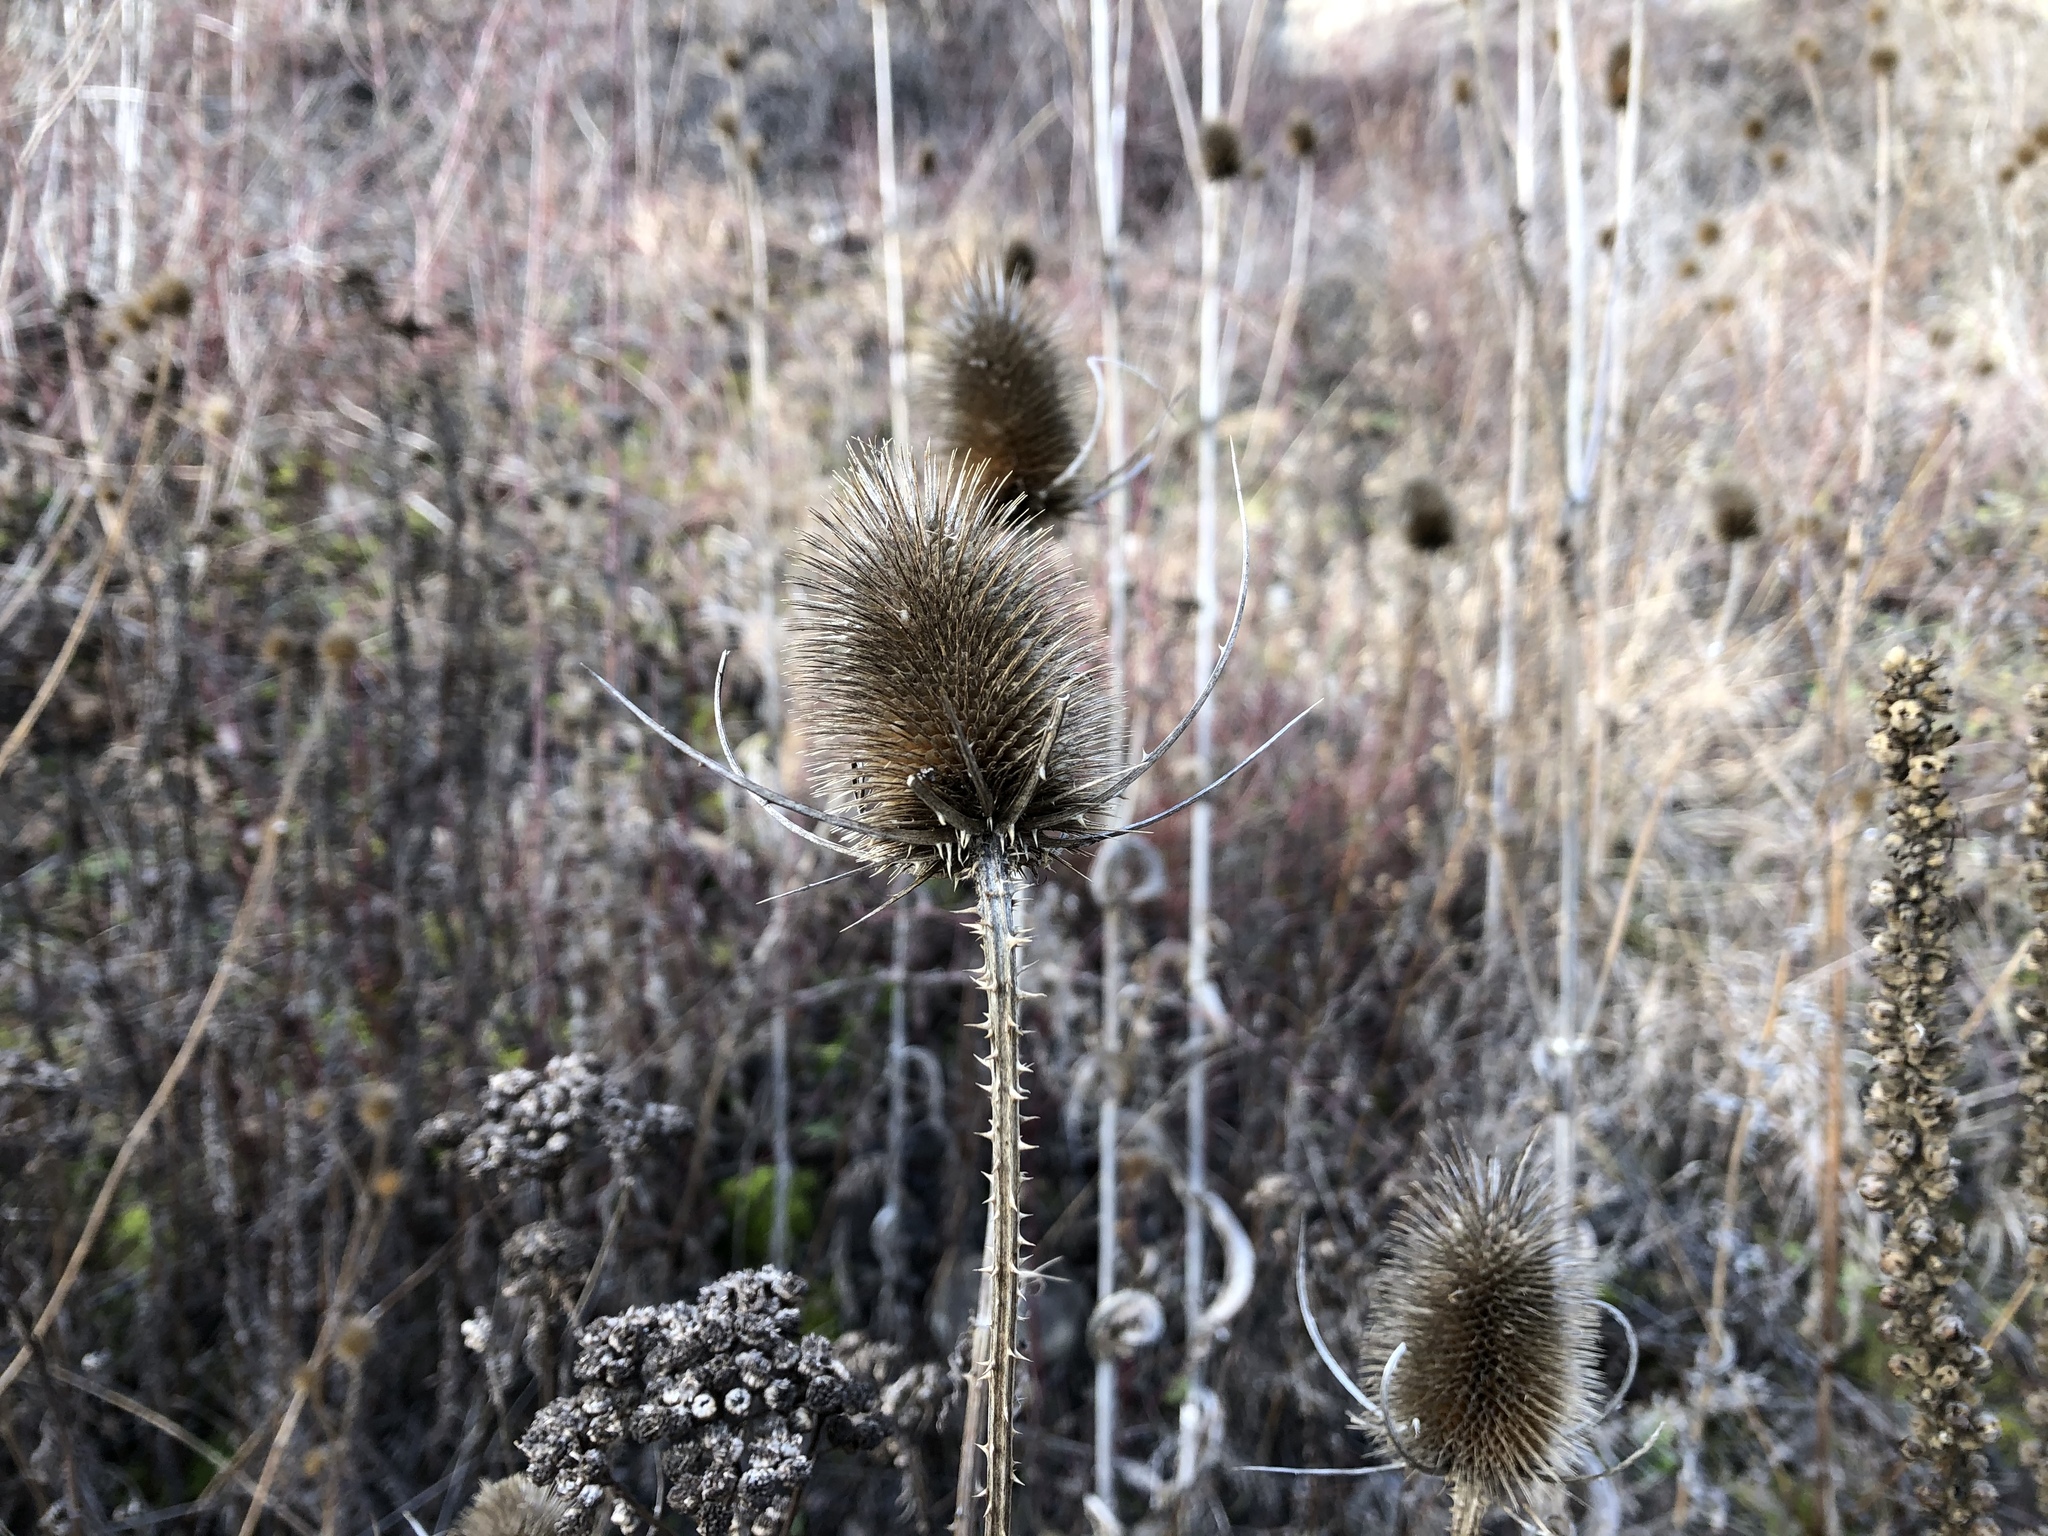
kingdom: Plantae
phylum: Tracheophyta
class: Magnoliopsida
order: Dipsacales
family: Caprifoliaceae
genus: Dipsacus
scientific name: Dipsacus fullonum
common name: Teasel
